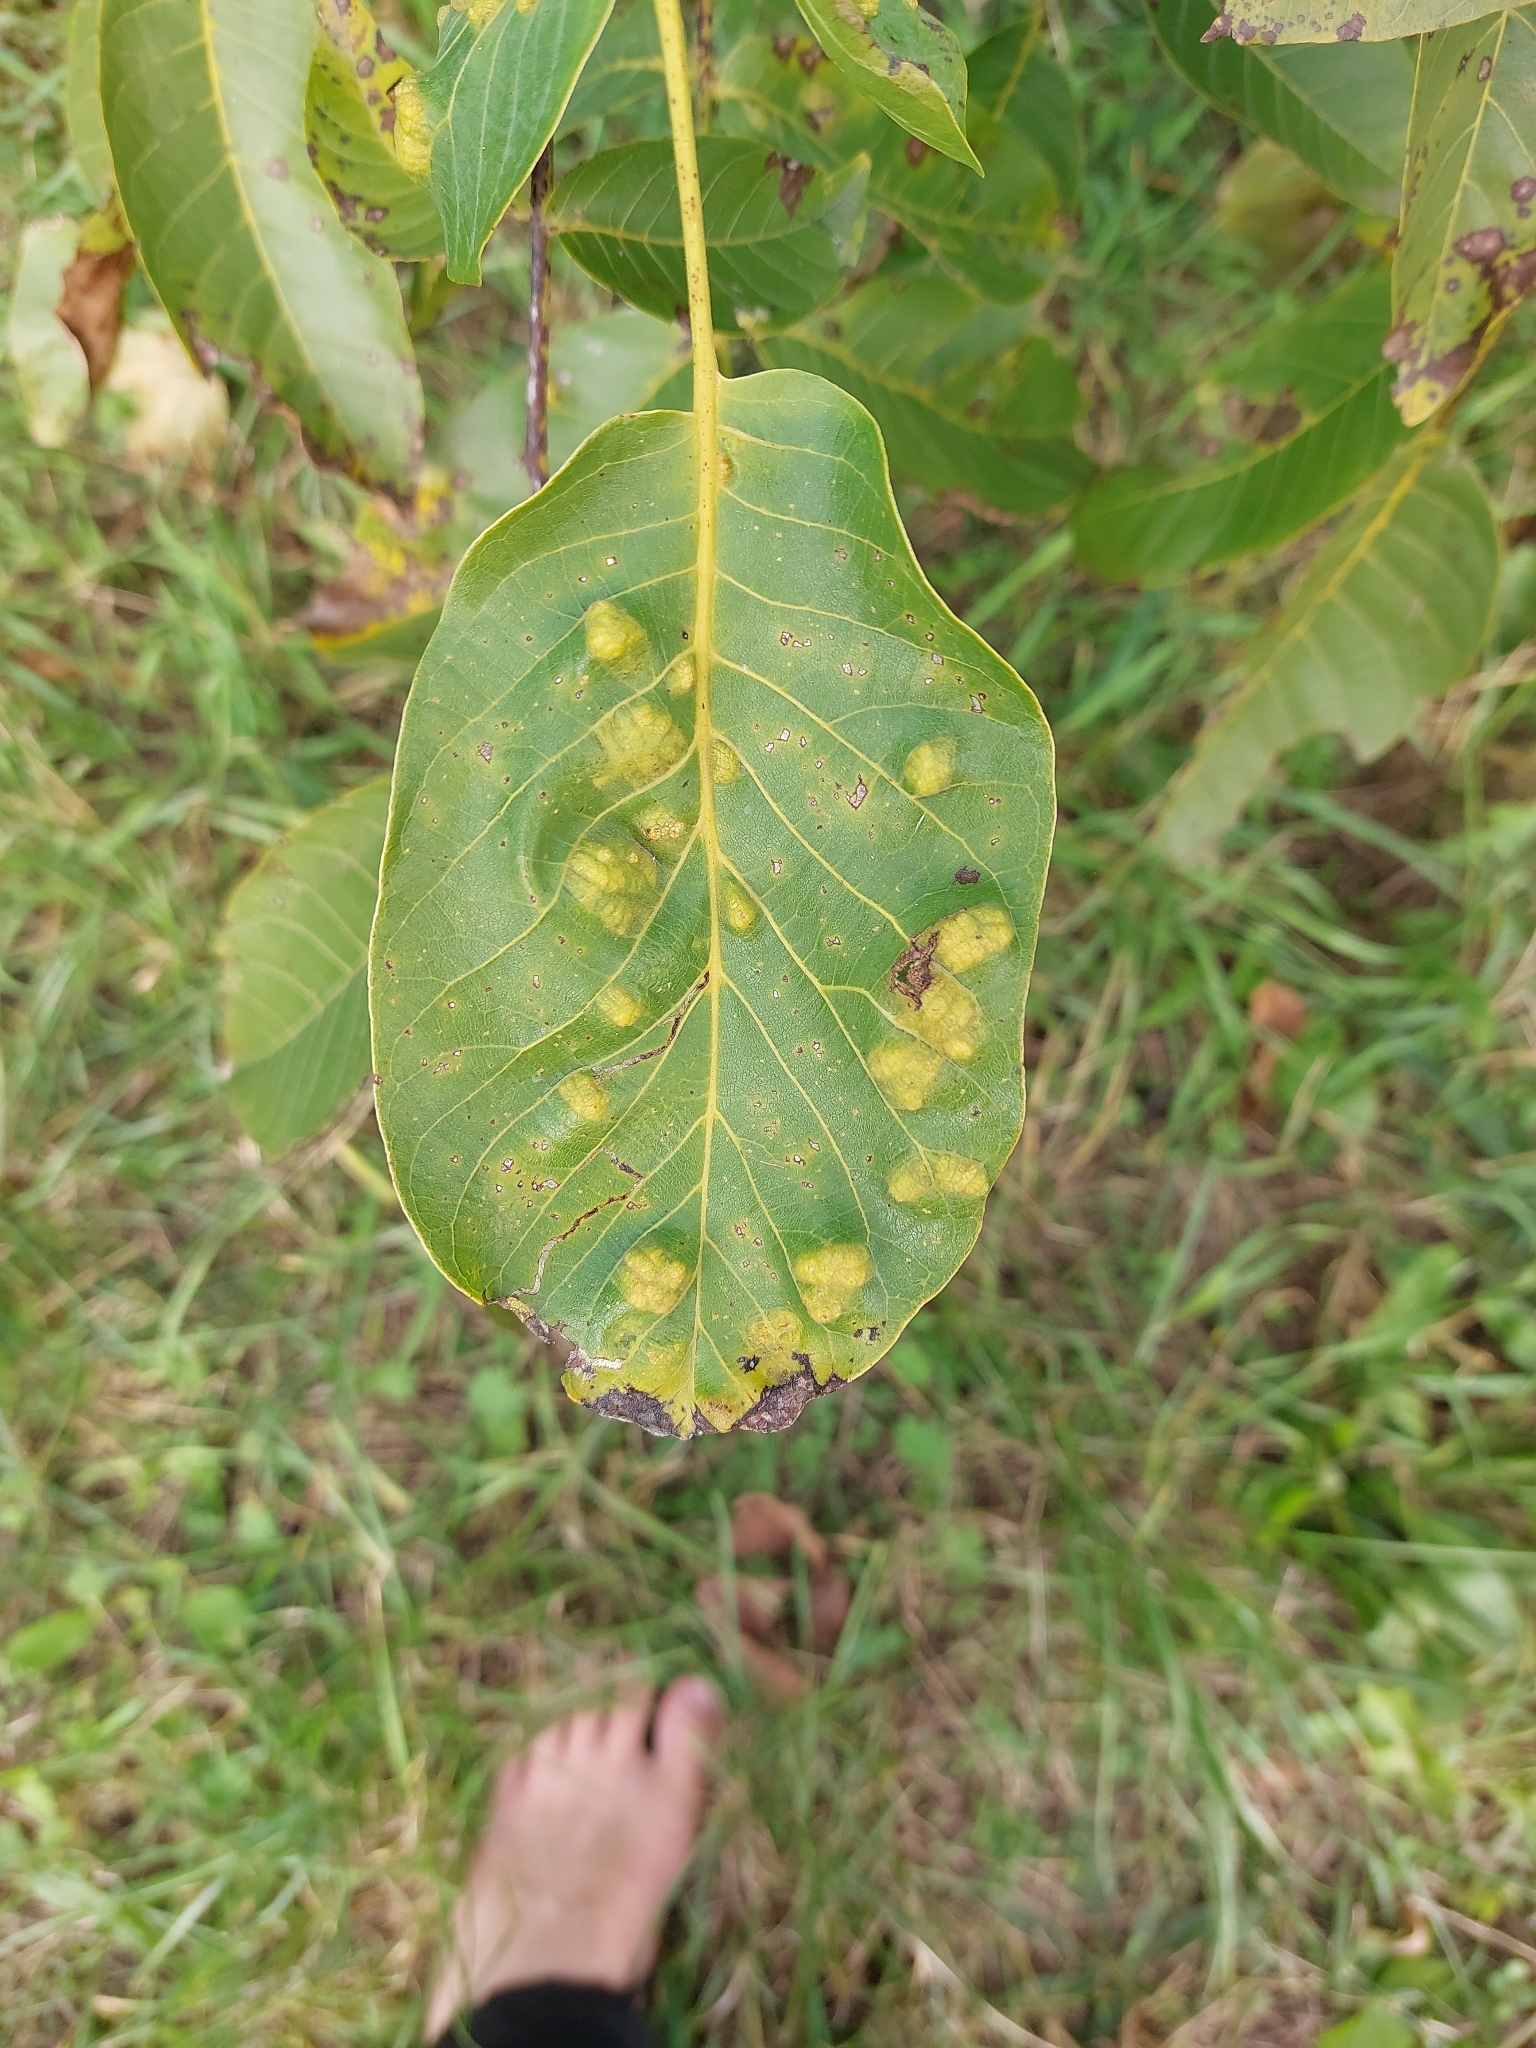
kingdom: Animalia
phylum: Arthropoda
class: Arachnida
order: Trombidiformes
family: Eriophyidae
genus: Aceria
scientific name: Aceria erinea
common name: Persian walnut erineum mite
